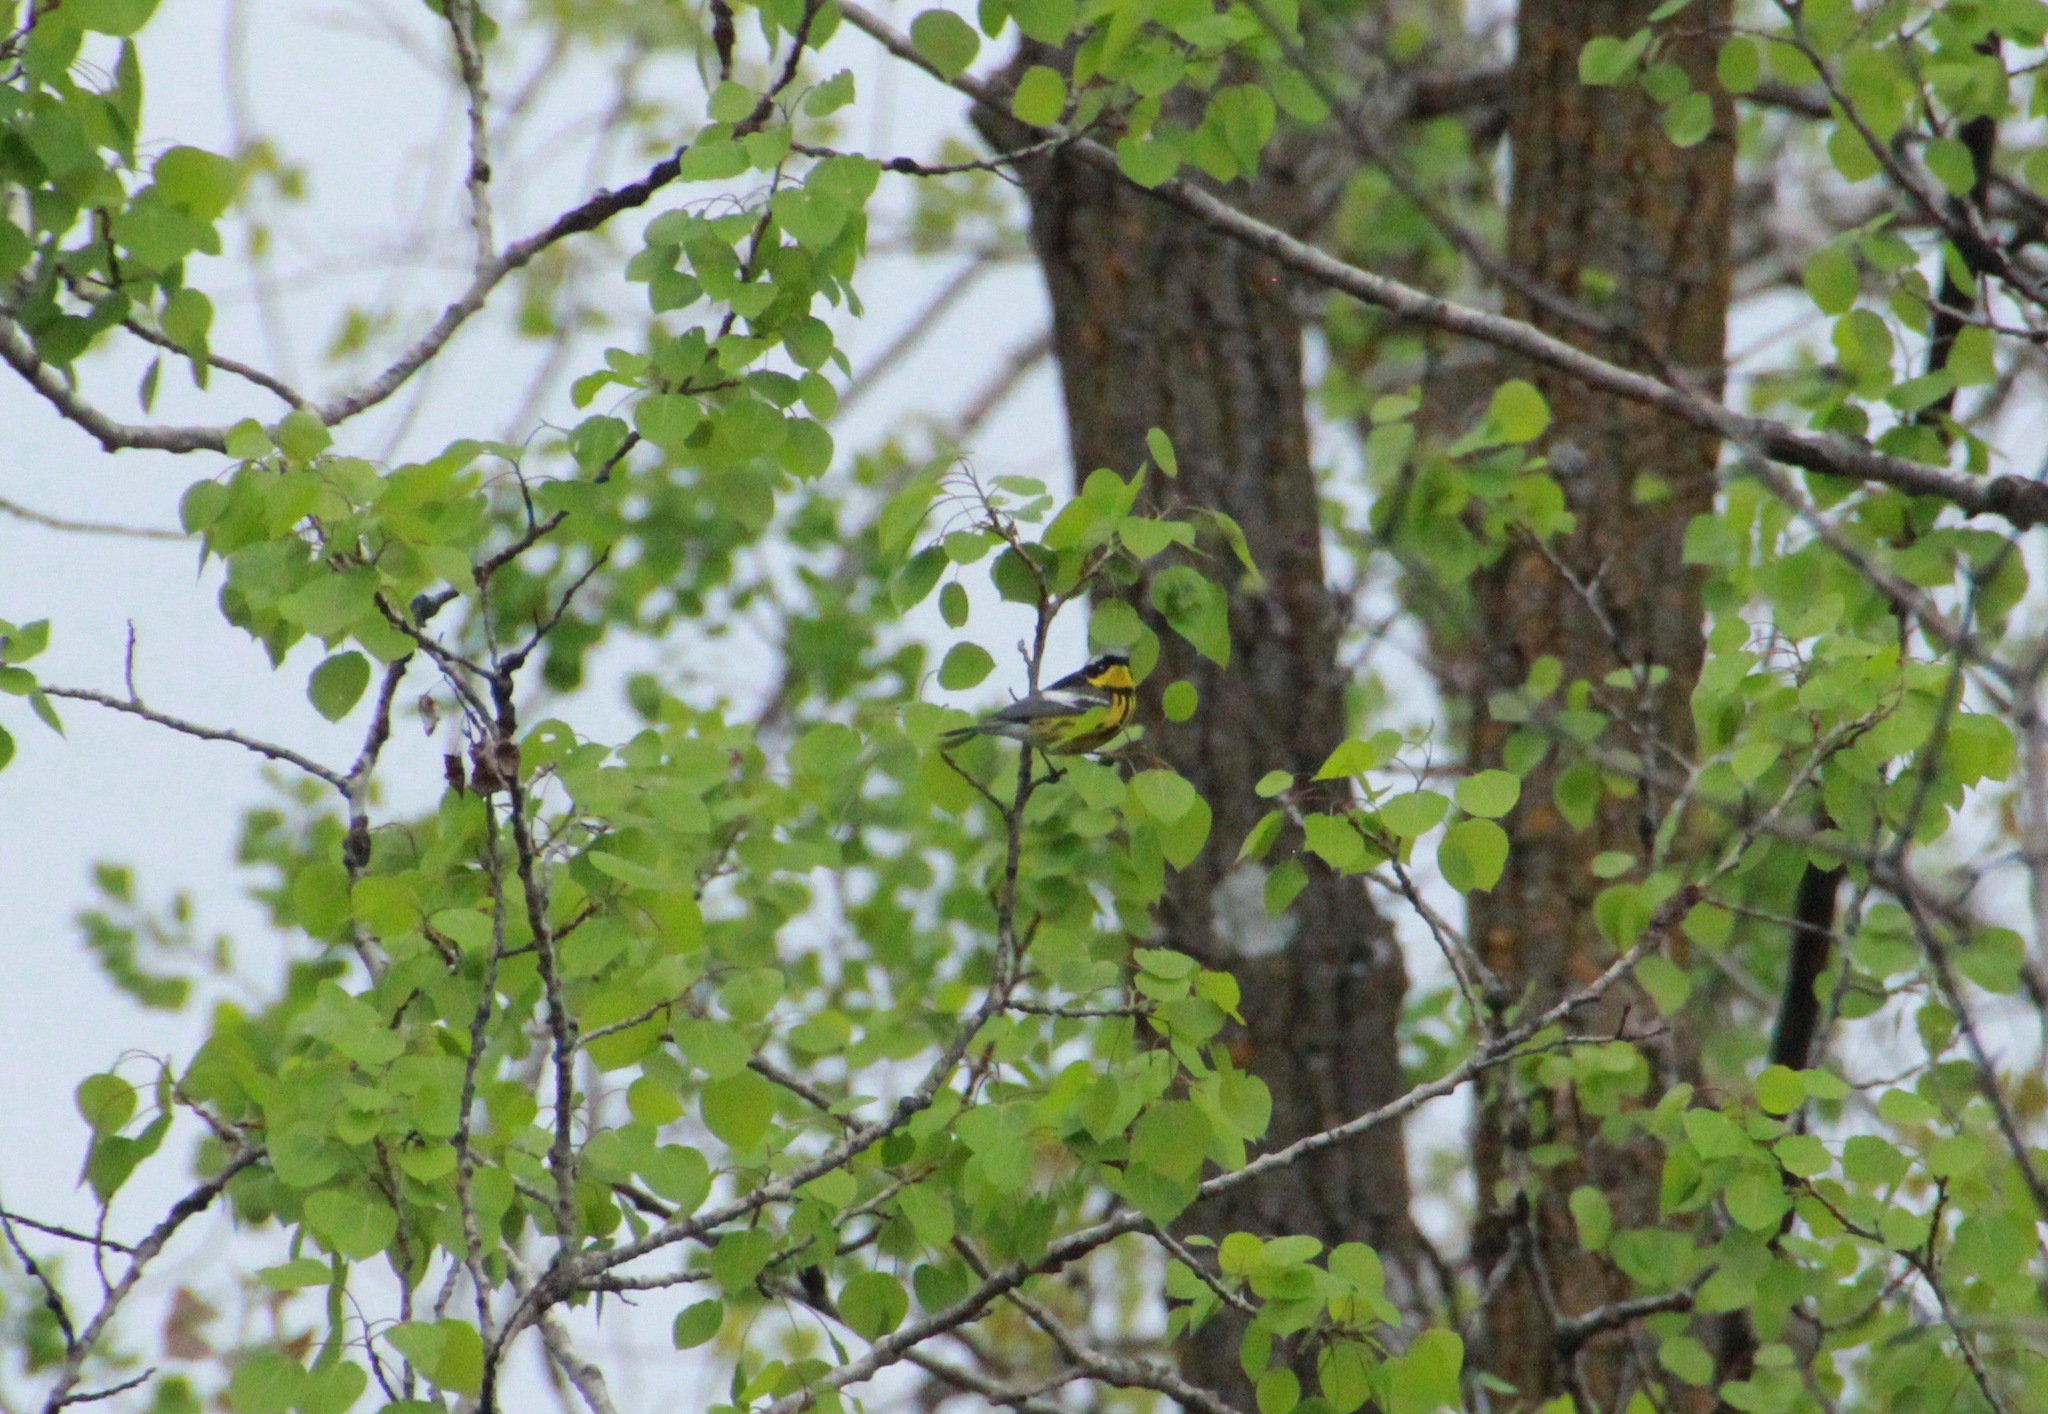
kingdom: Animalia
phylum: Chordata
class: Aves
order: Passeriformes
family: Parulidae
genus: Setophaga
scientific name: Setophaga magnolia
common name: Magnolia warbler
